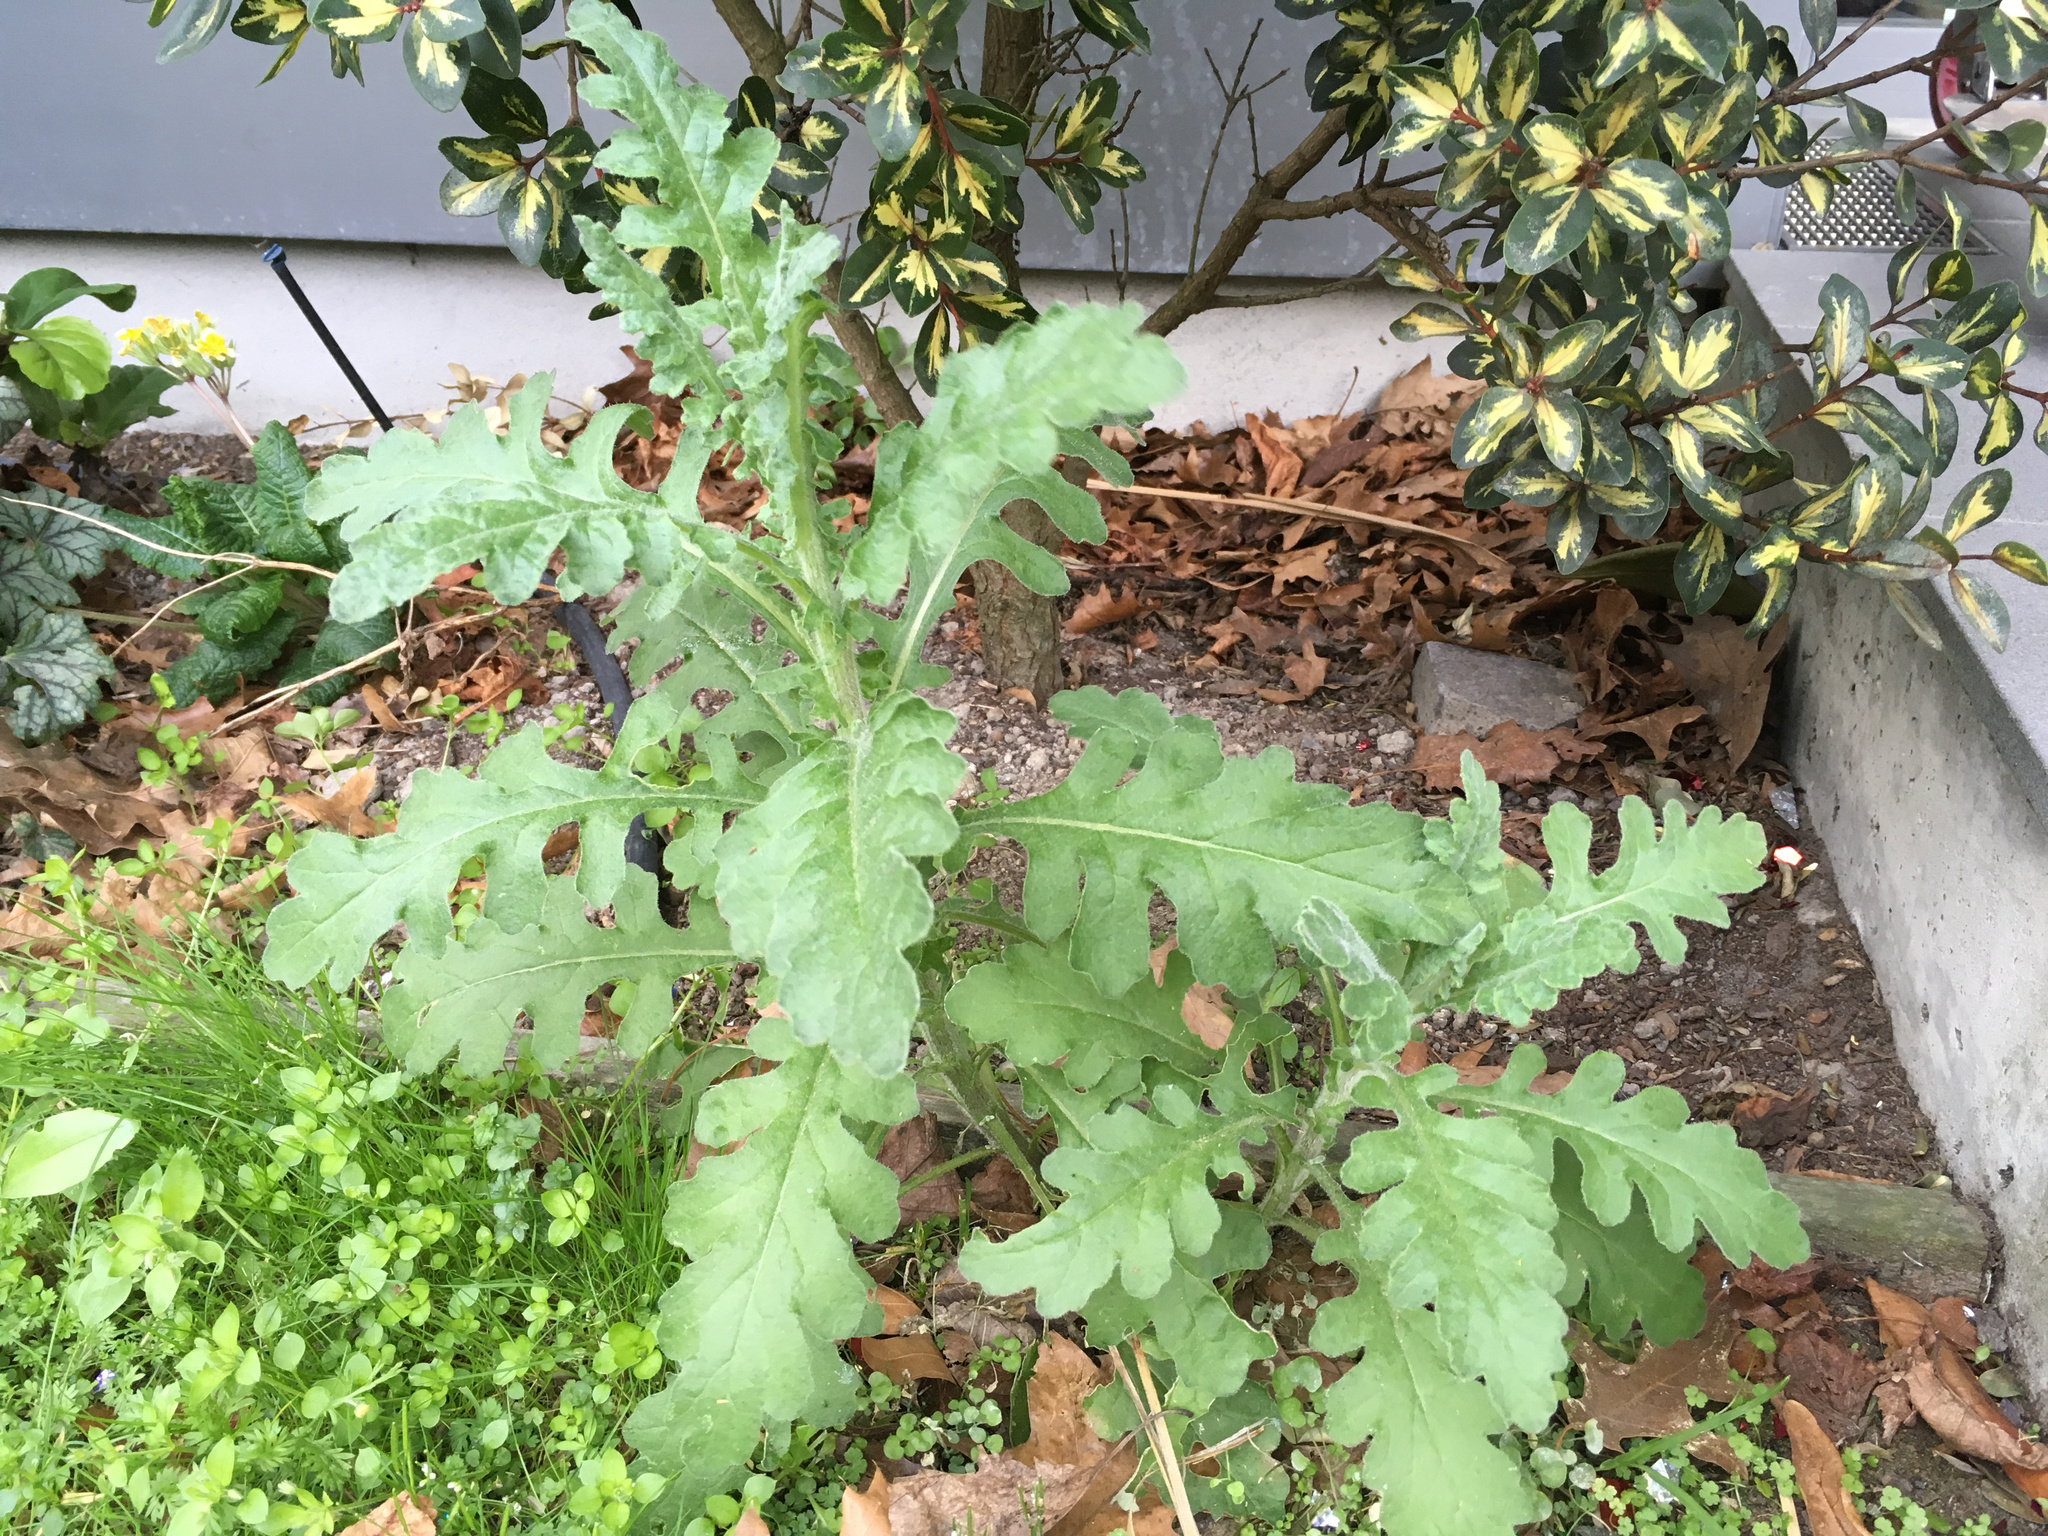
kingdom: Plantae
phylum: Tracheophyta
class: Magnoliopsida
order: Asterales
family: Asteraceae
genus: Senecio
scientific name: Senecio glomeratus
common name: Cutleaf burnweed
